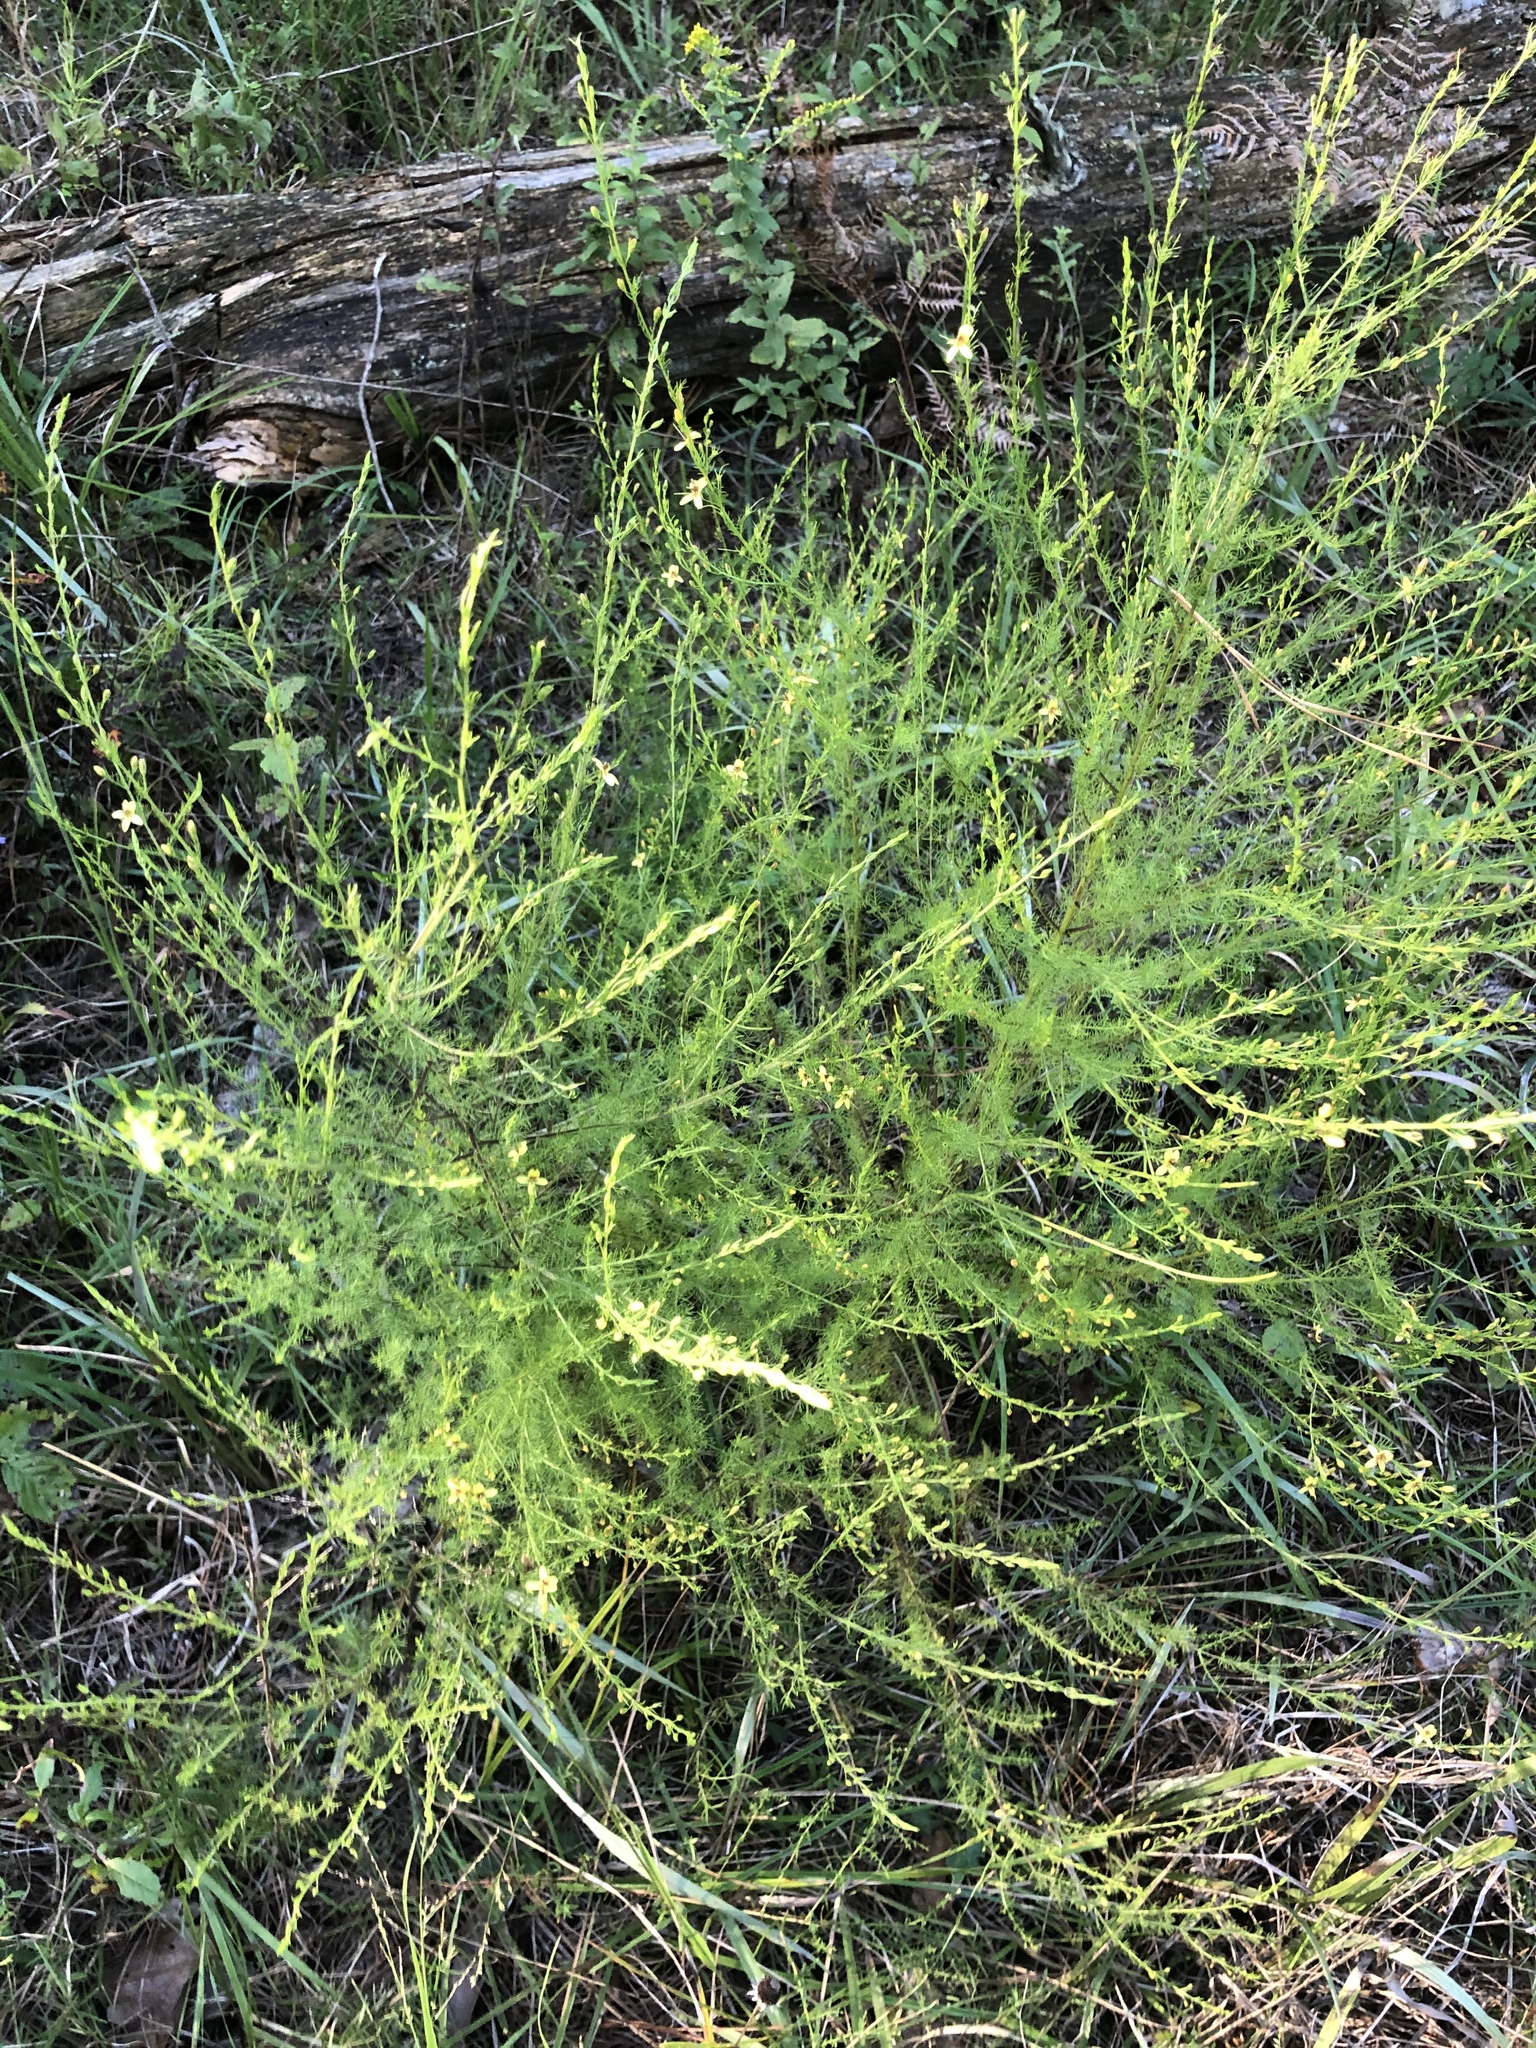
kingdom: Plantae
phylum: Tracheophyta
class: Magnoliopsida
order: Lamiales
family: Orobanchaceae
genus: Seymeria
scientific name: Seymeria cassioides
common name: Yaupon black-senna
